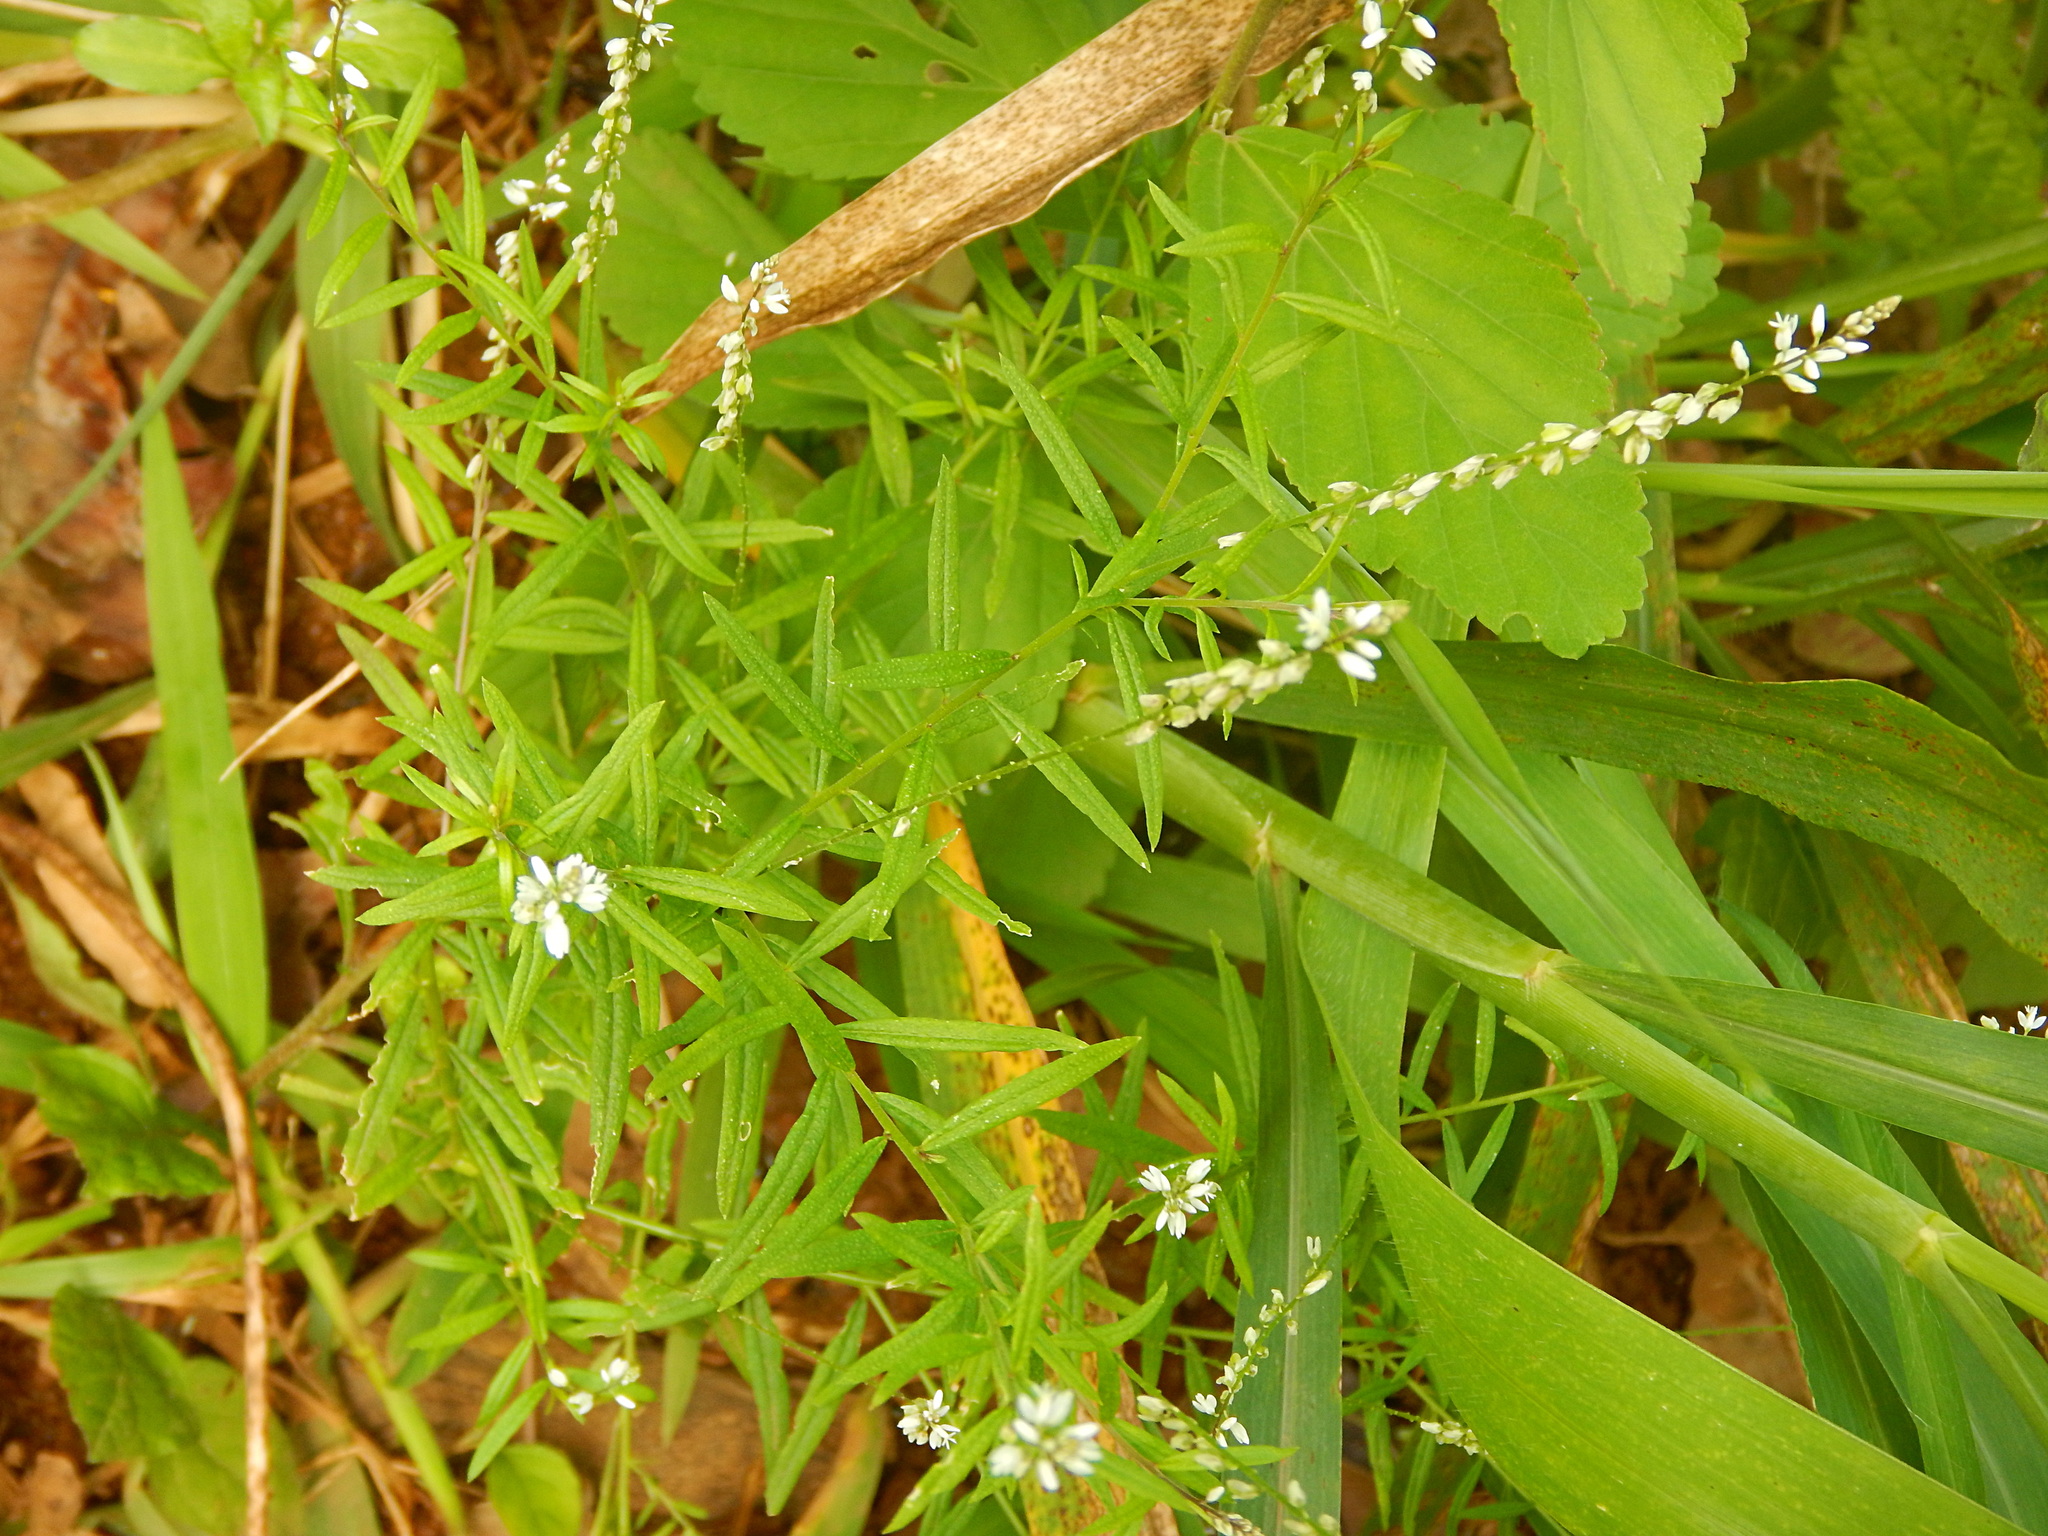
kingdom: Plantae
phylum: Tracheophyta
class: Magnoliopsida
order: Fabales
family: Polygalaceae
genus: Polygala
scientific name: Polygala paniculata
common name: Orosne
